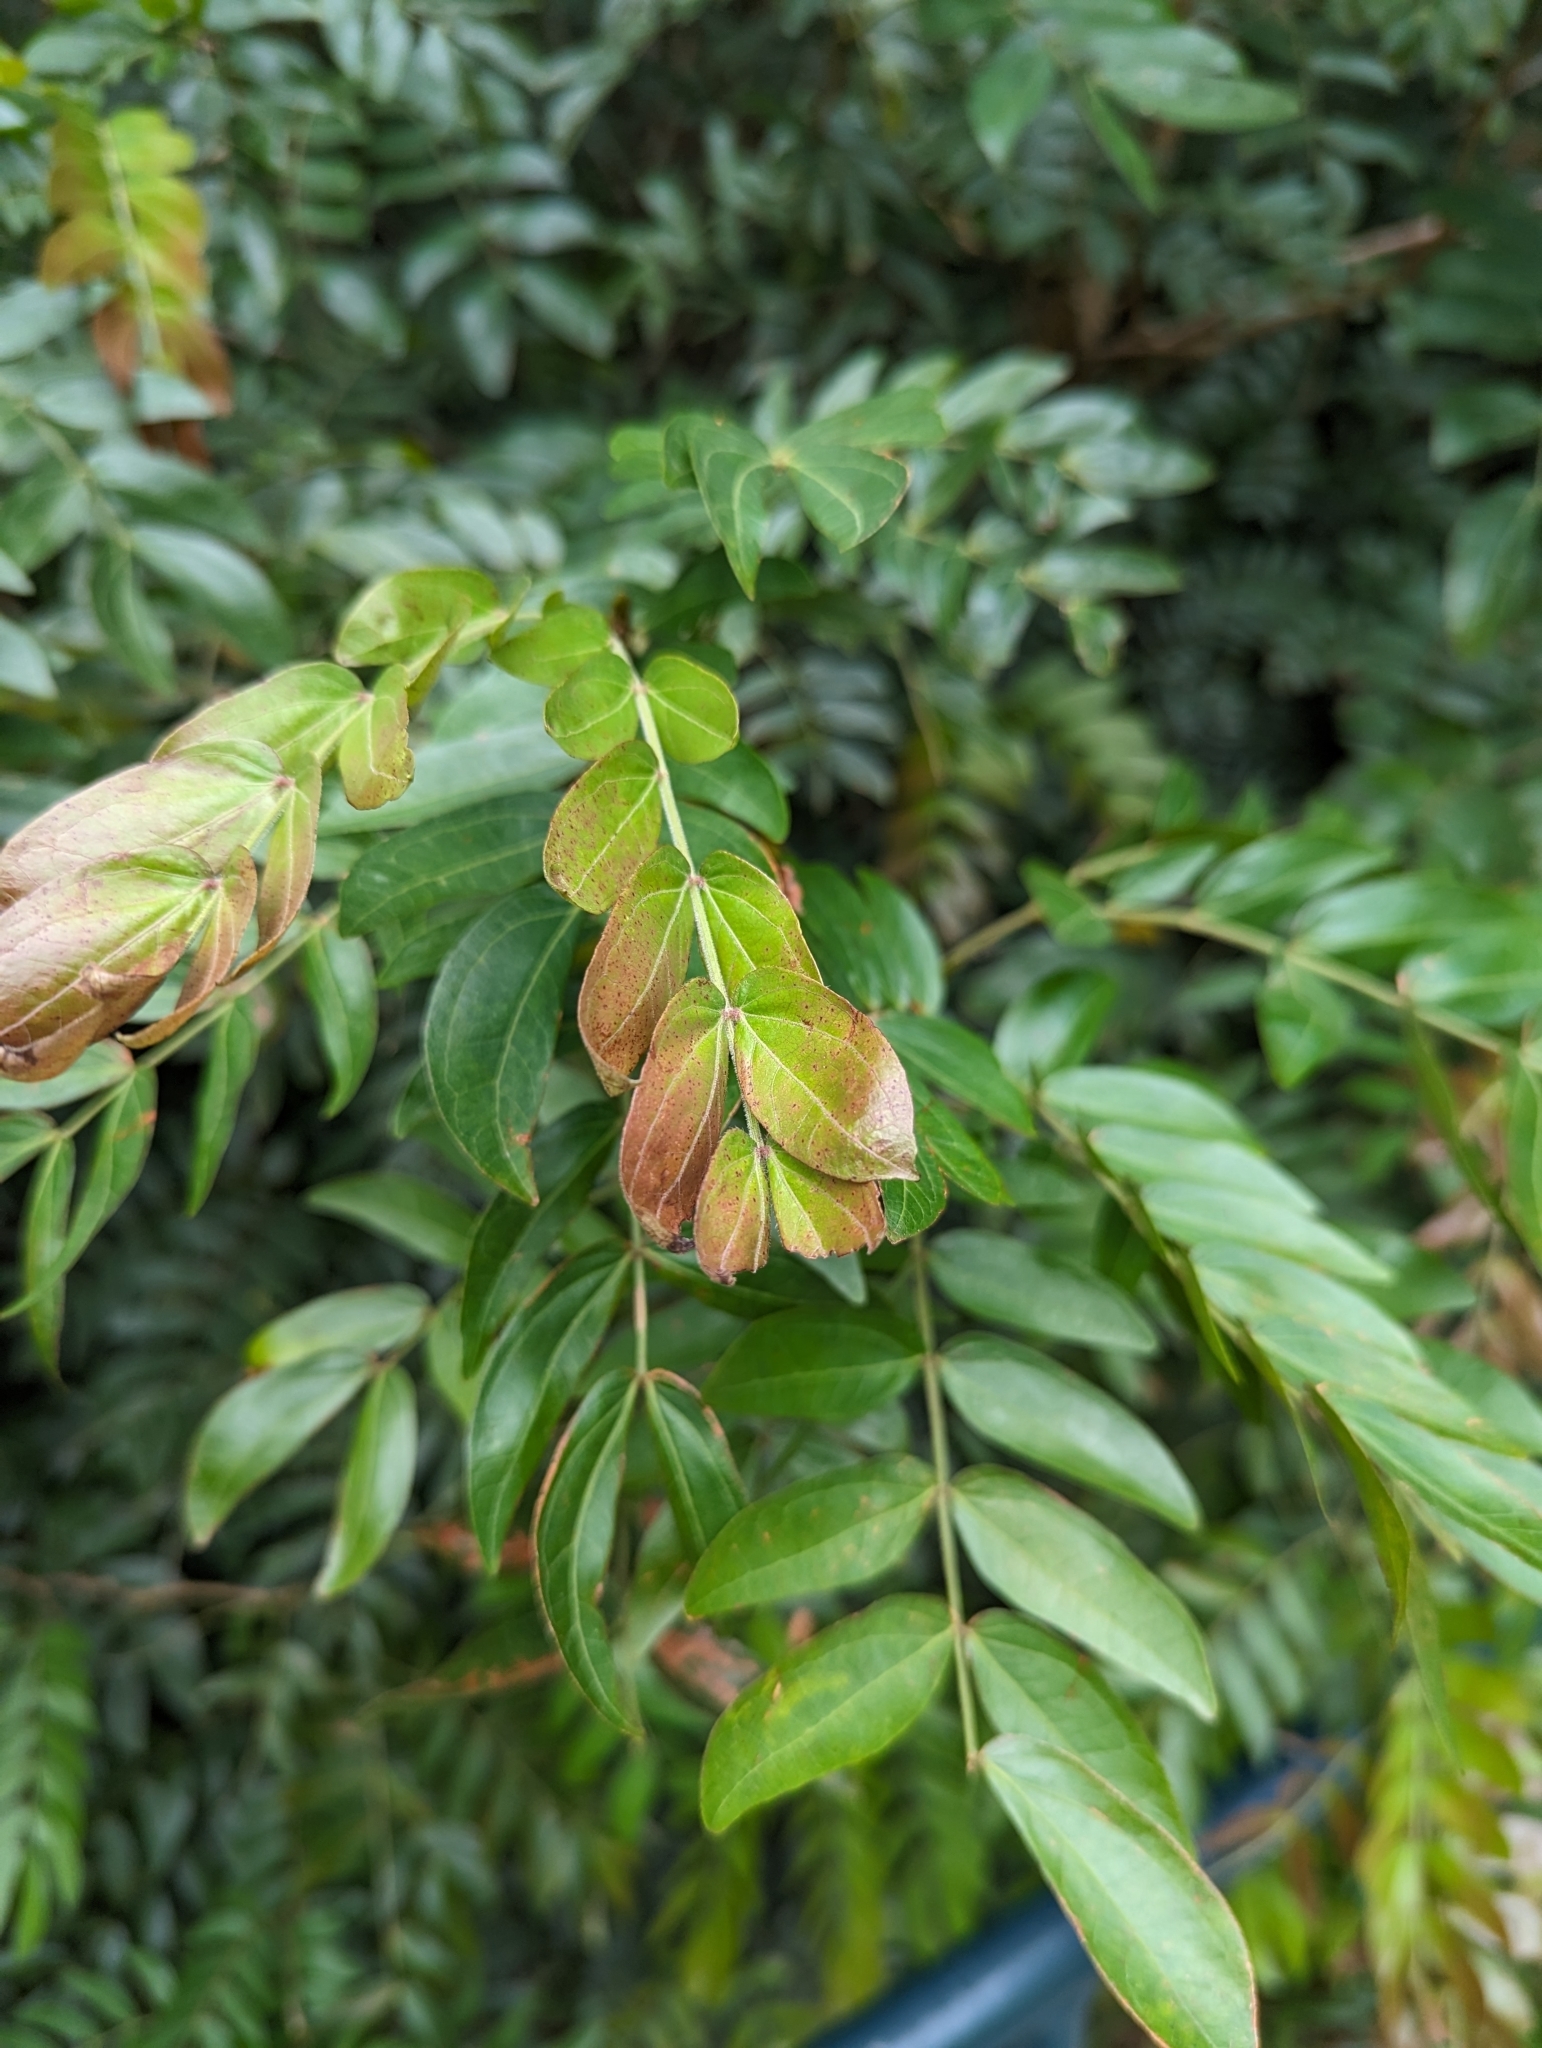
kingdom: Plantae
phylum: Tracheophyta
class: Magnoliopsida
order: Fabales
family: Fabaceae
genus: Calliandra
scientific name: Calliandra haematocephala
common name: Blood red tassel flower
